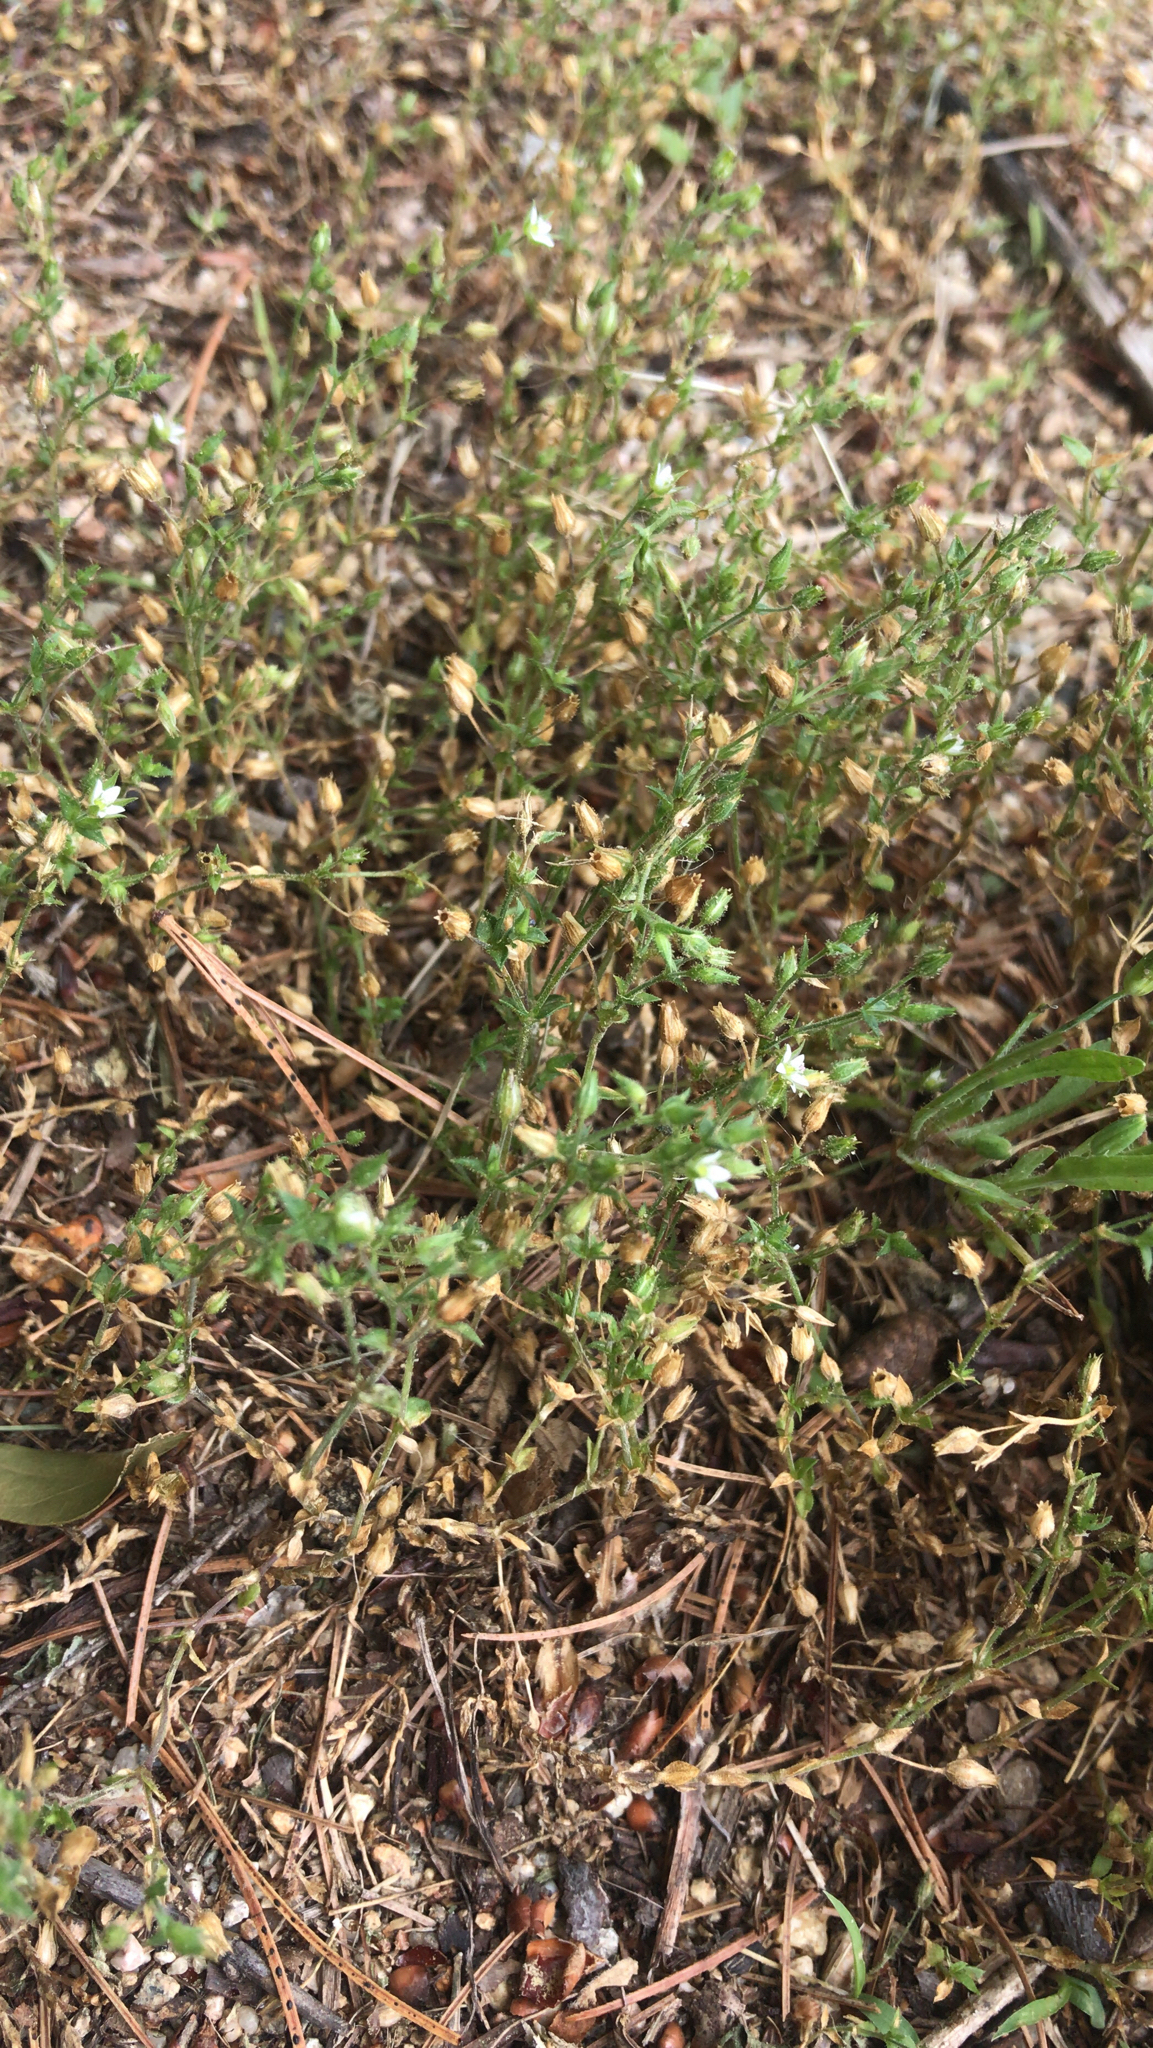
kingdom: Plantae
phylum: Tracheophyta
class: Magnoliopsida
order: Caryophyllales
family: Caryophyllaceae
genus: Arenaria
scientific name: Arenaria serpyllifolia
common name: Thyme-leaved sandwort
